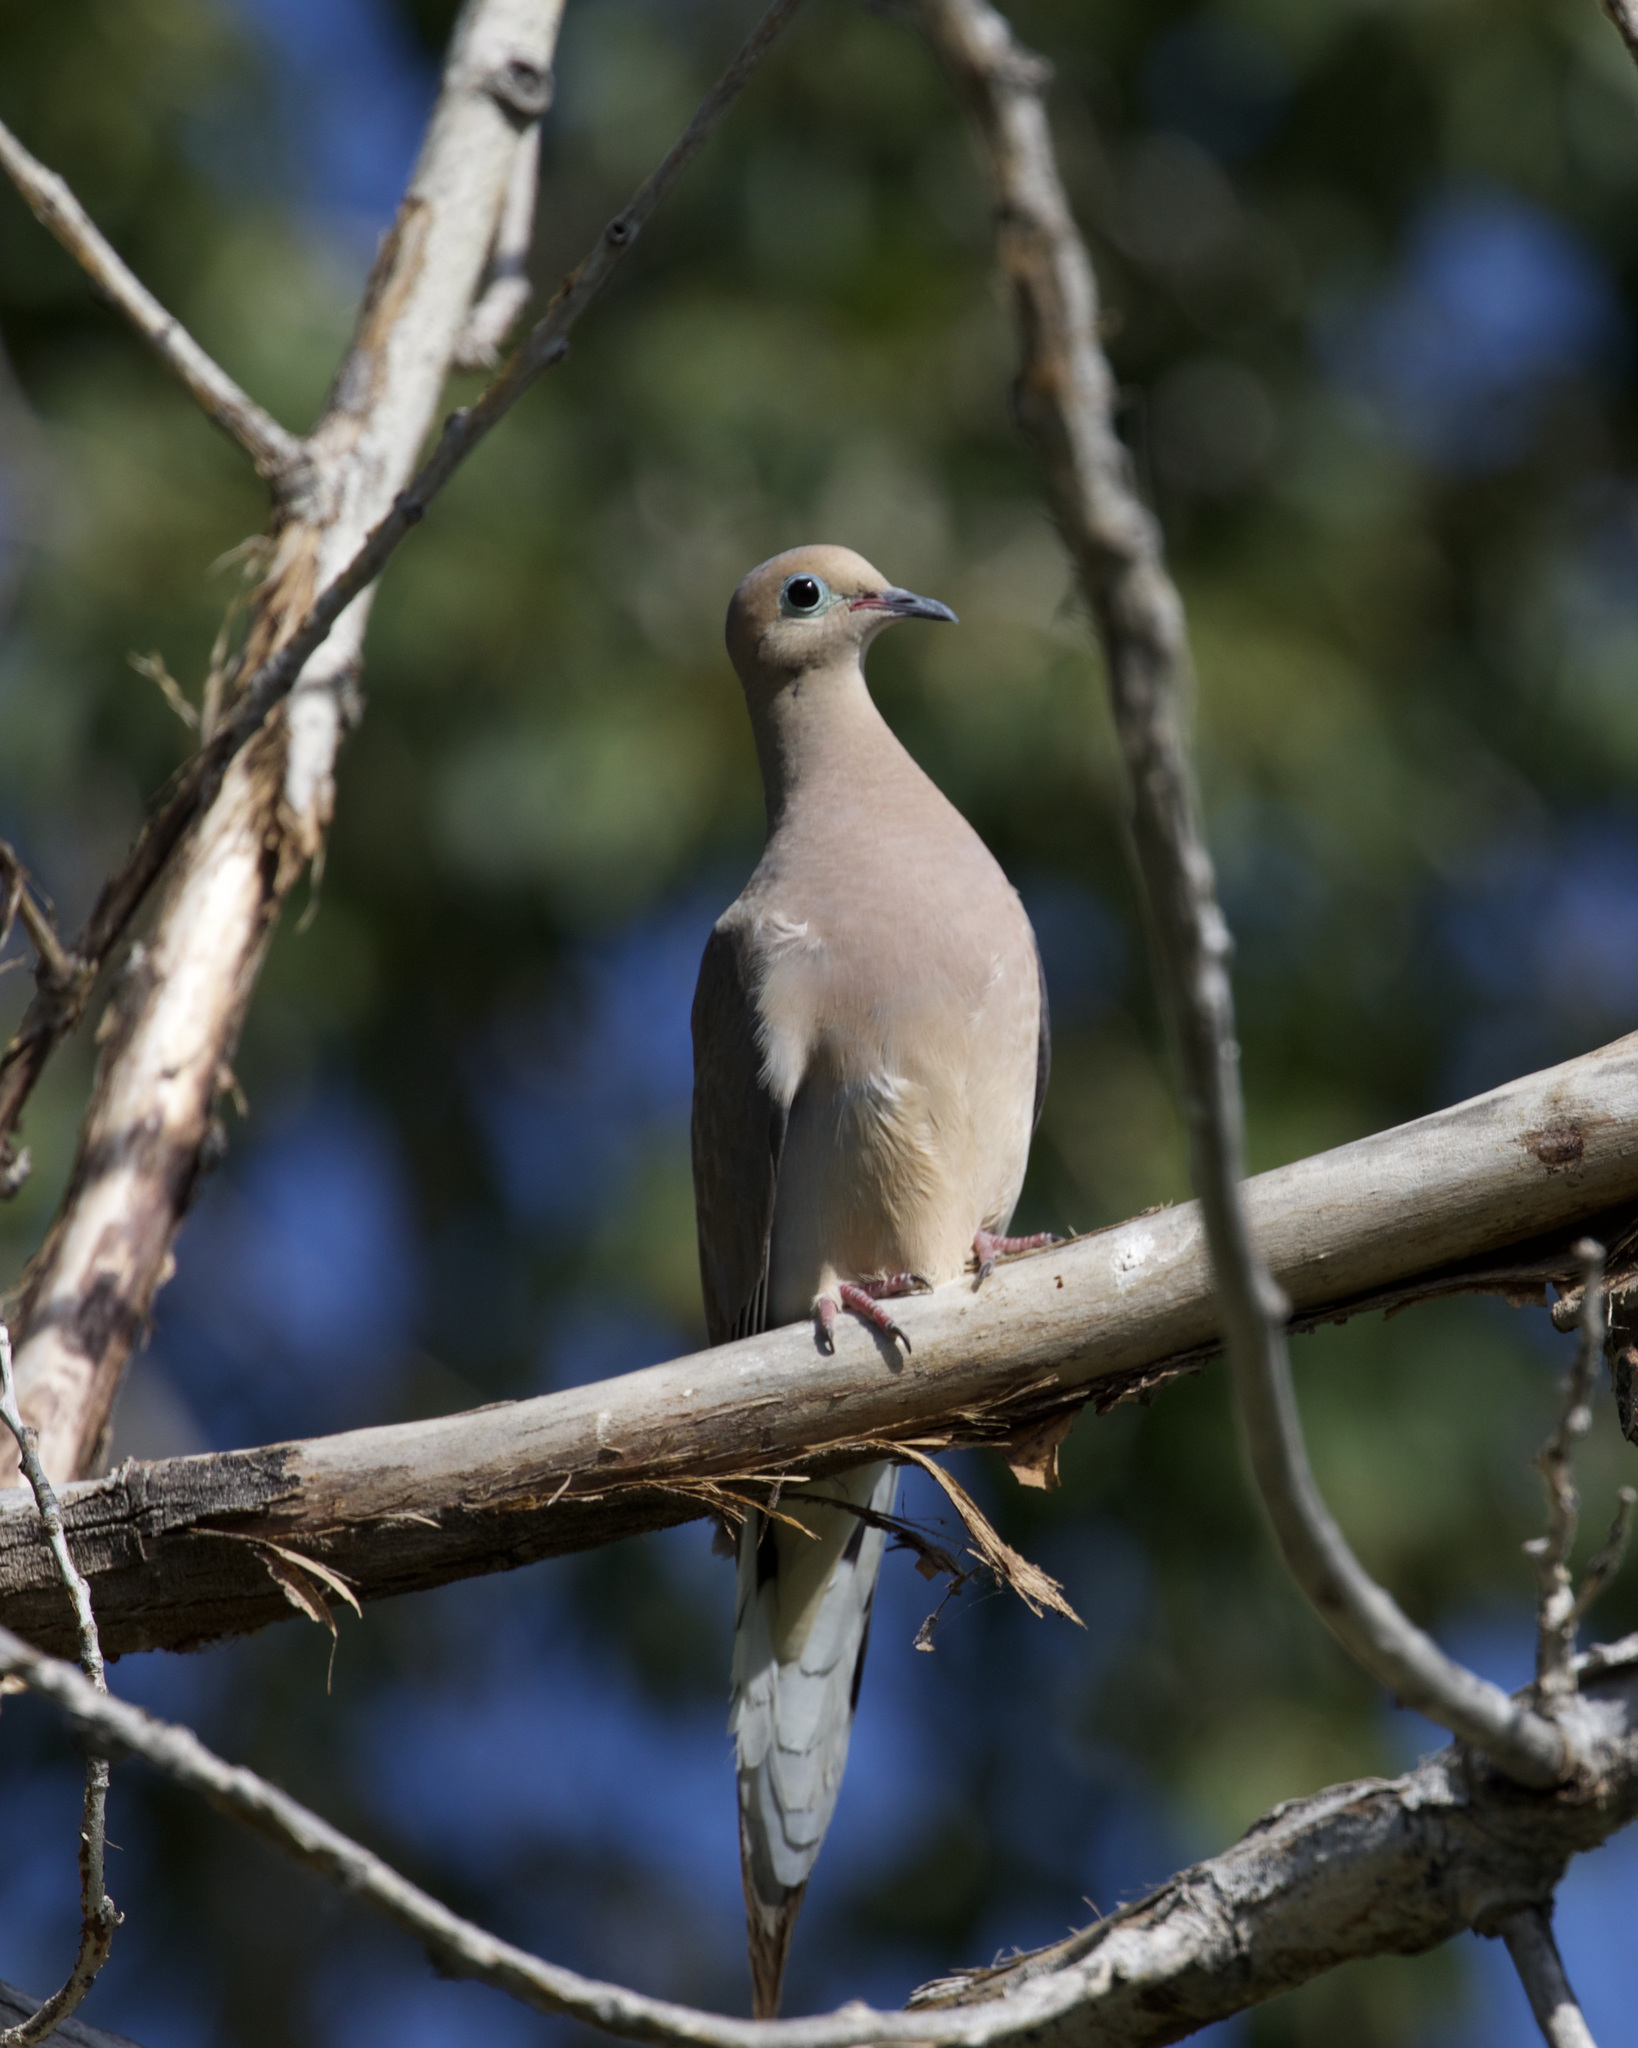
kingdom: Animalia
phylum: Chordata
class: Aves
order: Columbiformes
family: Columbidae
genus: Zenaida
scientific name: Zenaida macroura
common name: Mourning dove
